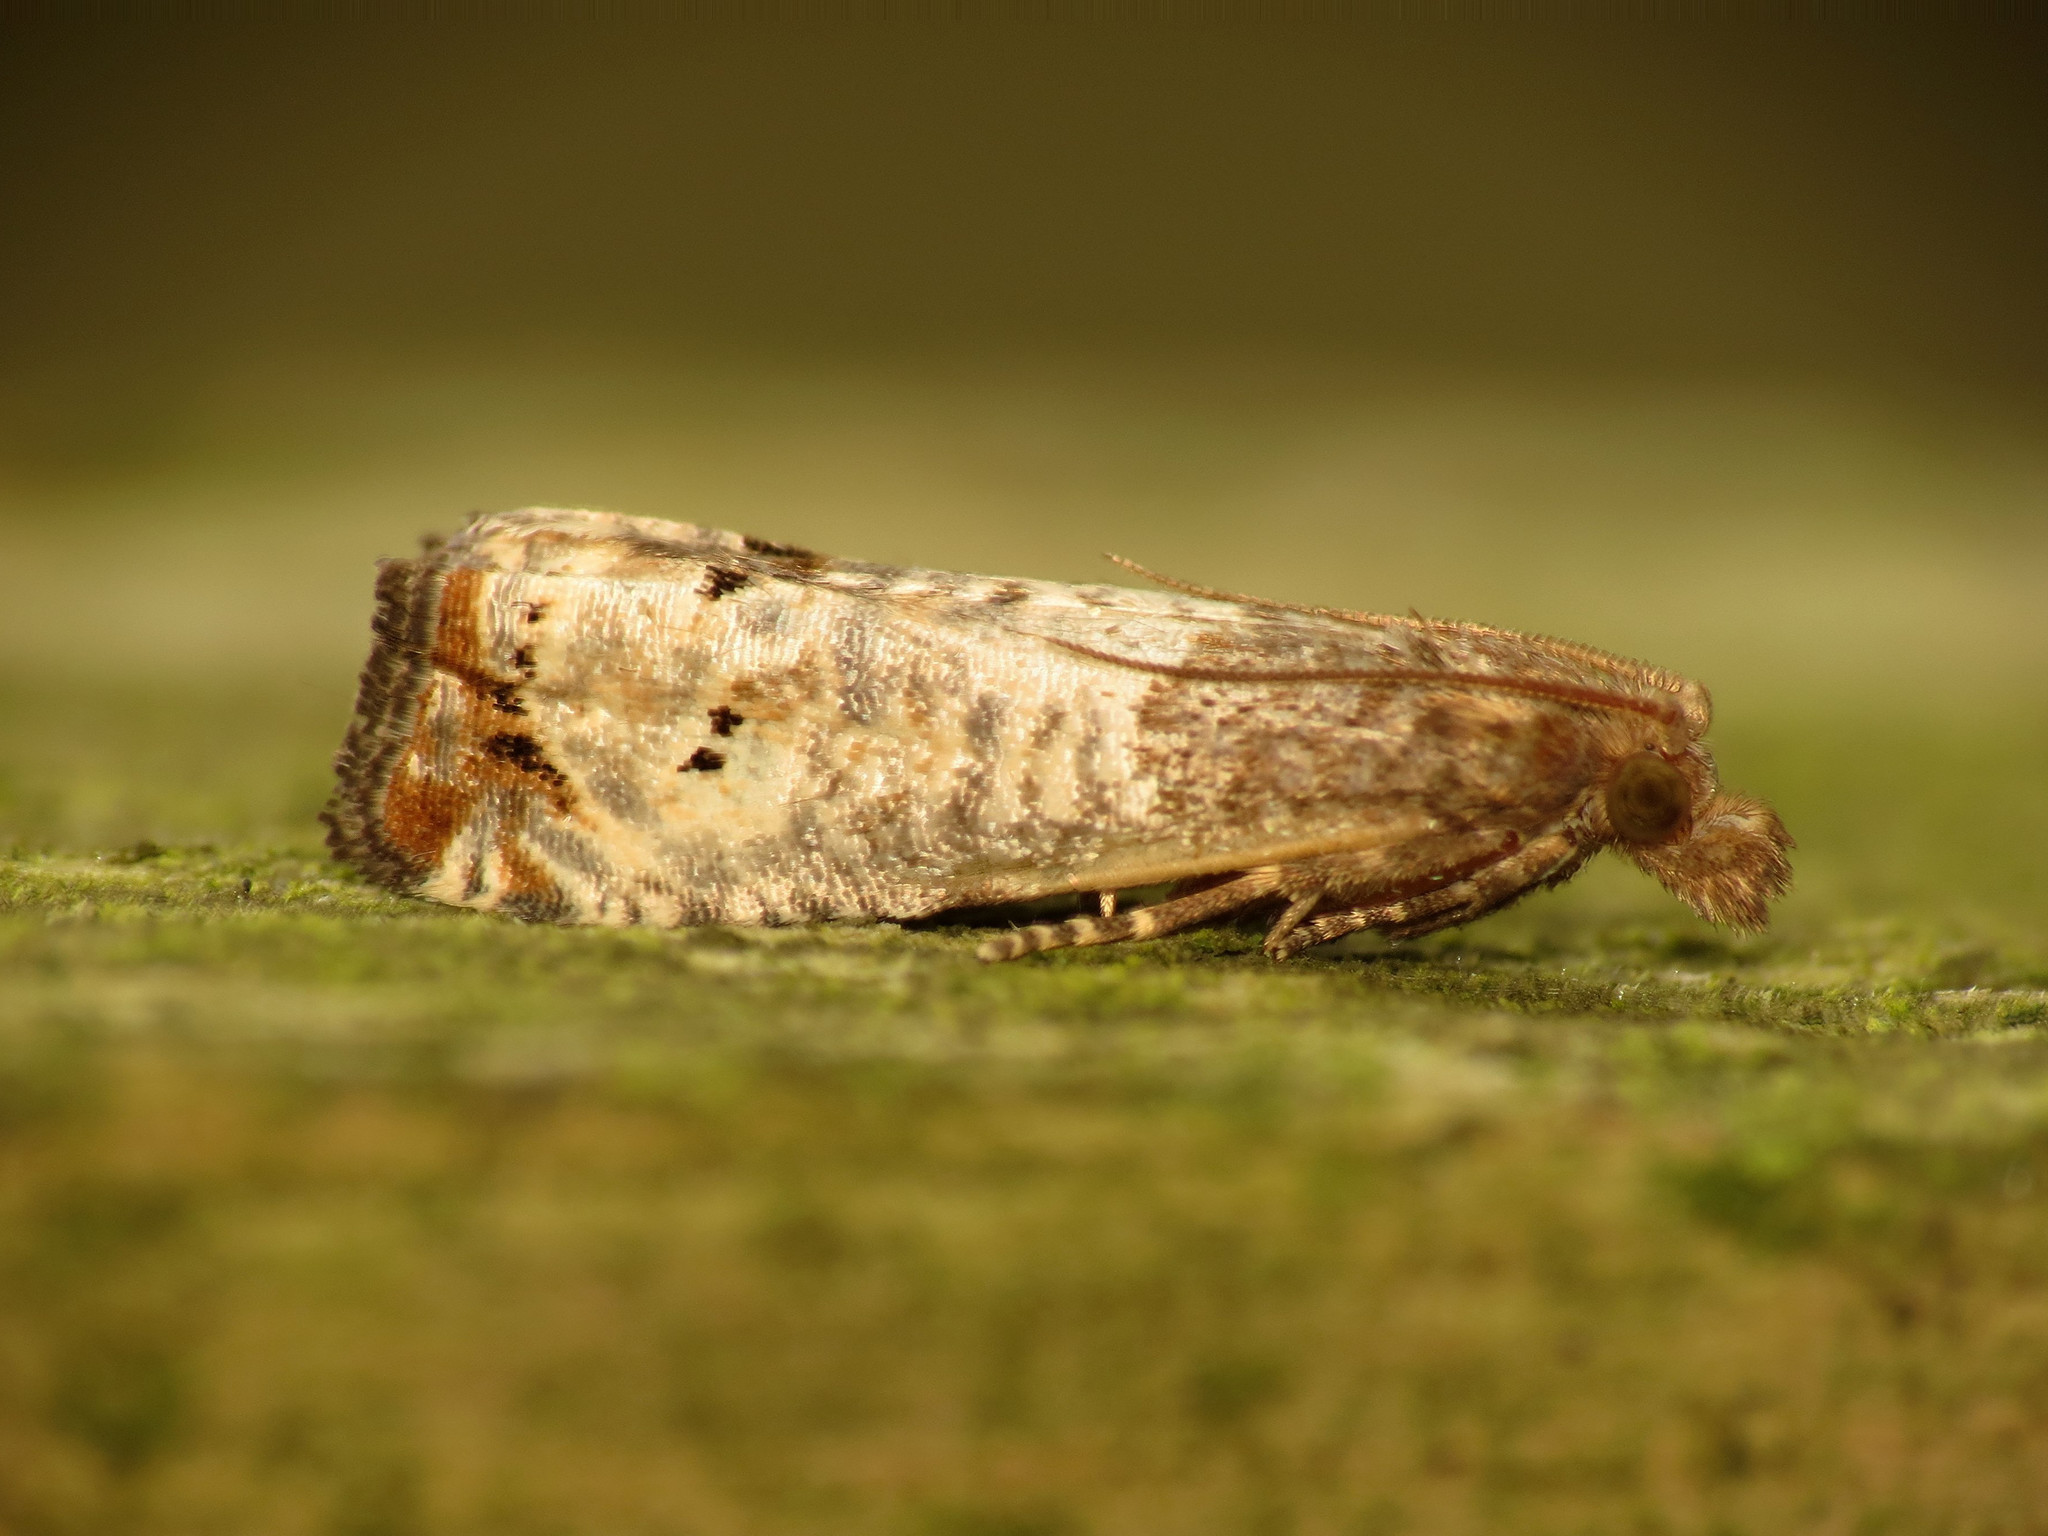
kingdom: Animalia
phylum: Arthropoda
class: Insecta
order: Lepidoptera
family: Tortricidae
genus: Epiblema
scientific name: Epiblema aquana
